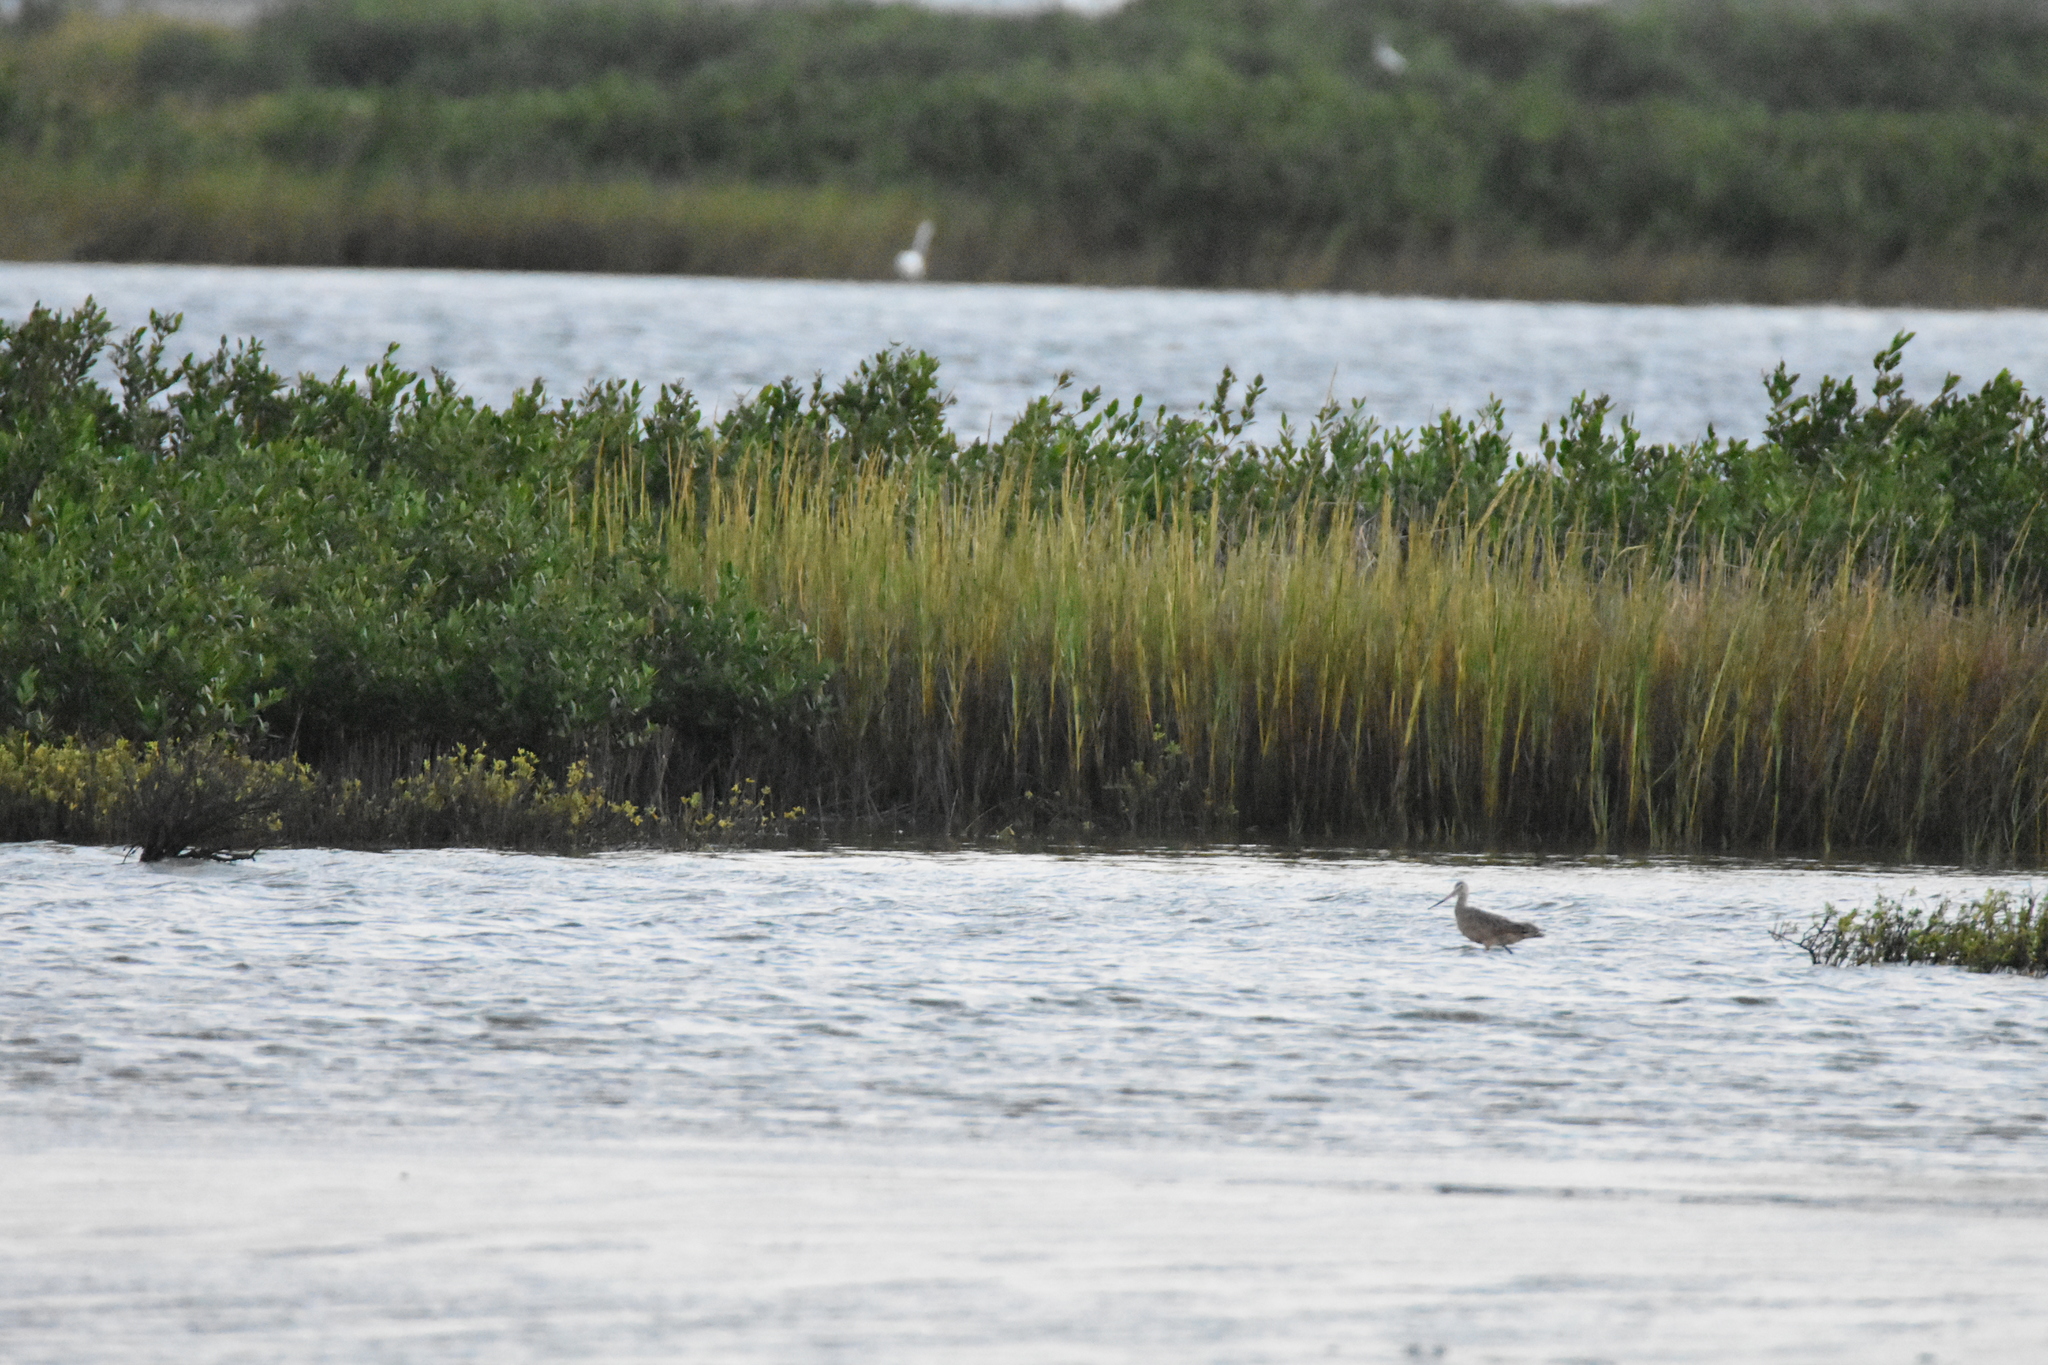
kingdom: Animalia
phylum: Chordata
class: Aves
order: Charadriiformes
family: Scolopacidae
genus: Limosa
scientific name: Limosa fedoa
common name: Marbled godwit
